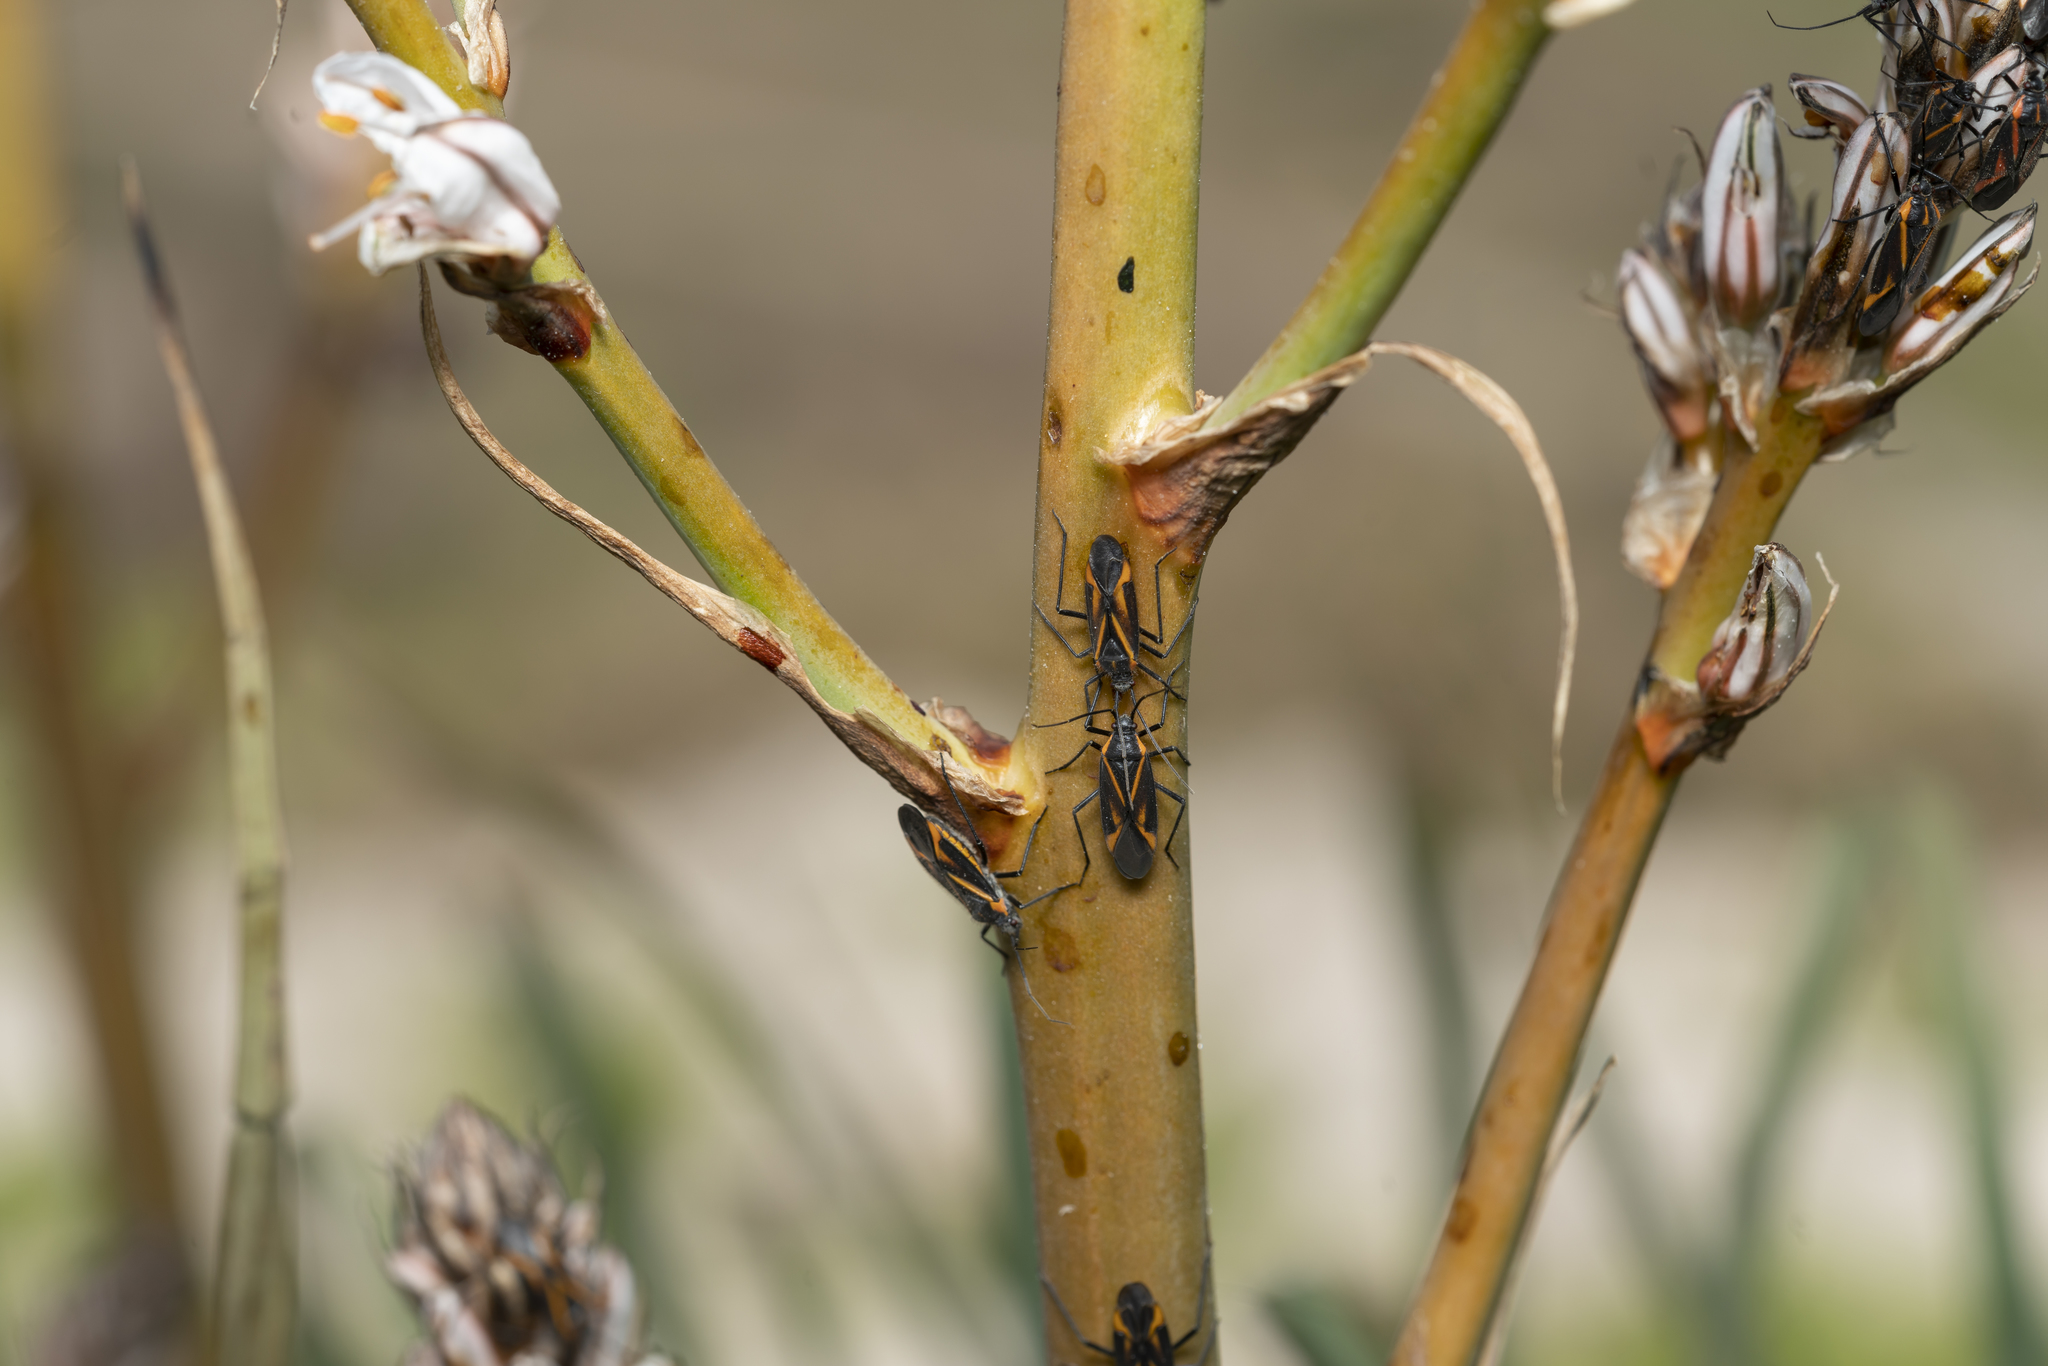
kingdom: Animalia
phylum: Arthropoda
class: Insecta
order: Hemiptera
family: Miridae
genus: Horistus
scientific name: Horistus infuscatus
